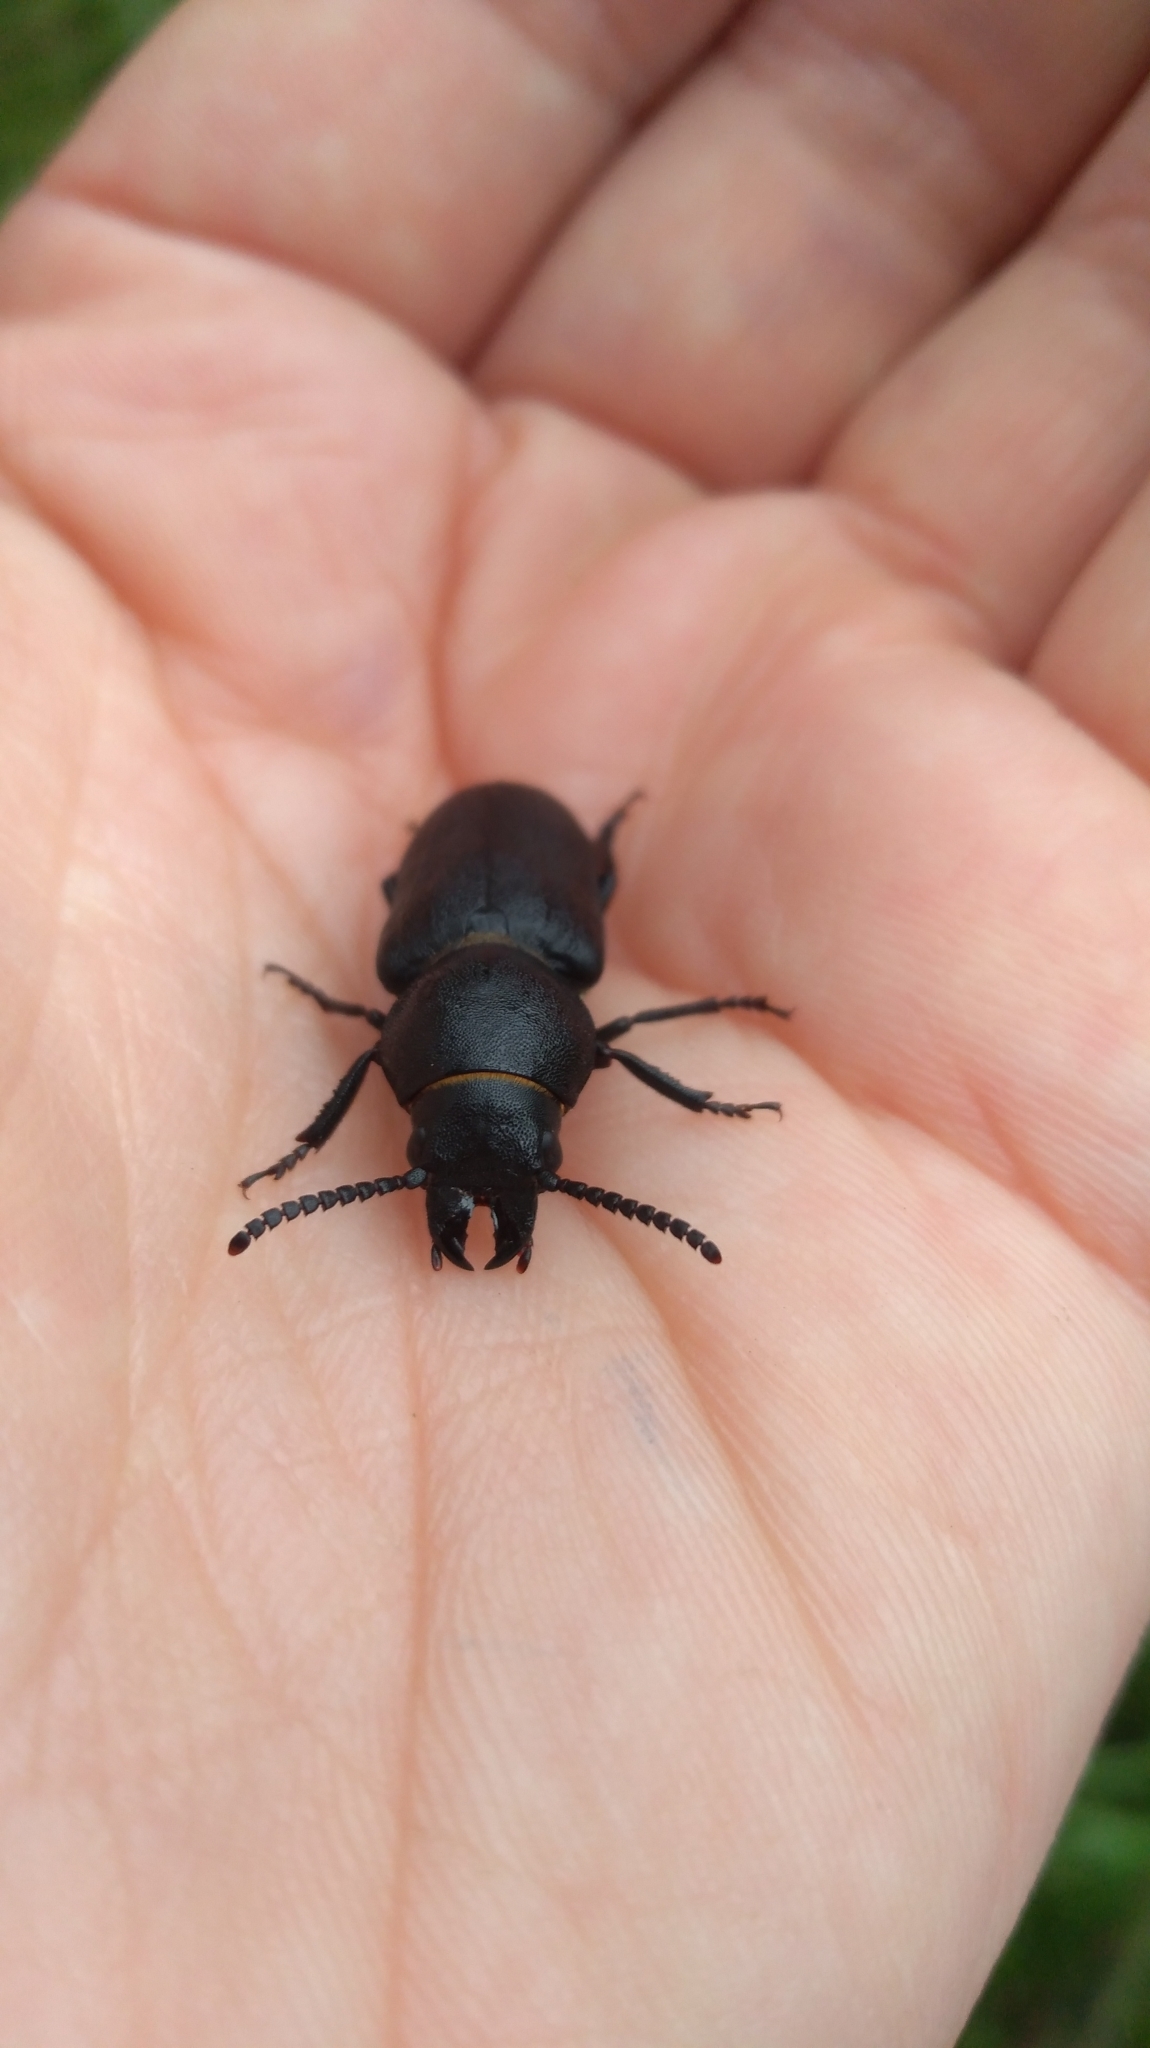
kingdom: Animalia
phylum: Arthropoda
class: Insecta
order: Coleoptera
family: Cerambycidae
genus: Spondylis
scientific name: Spondylis buprestoides
